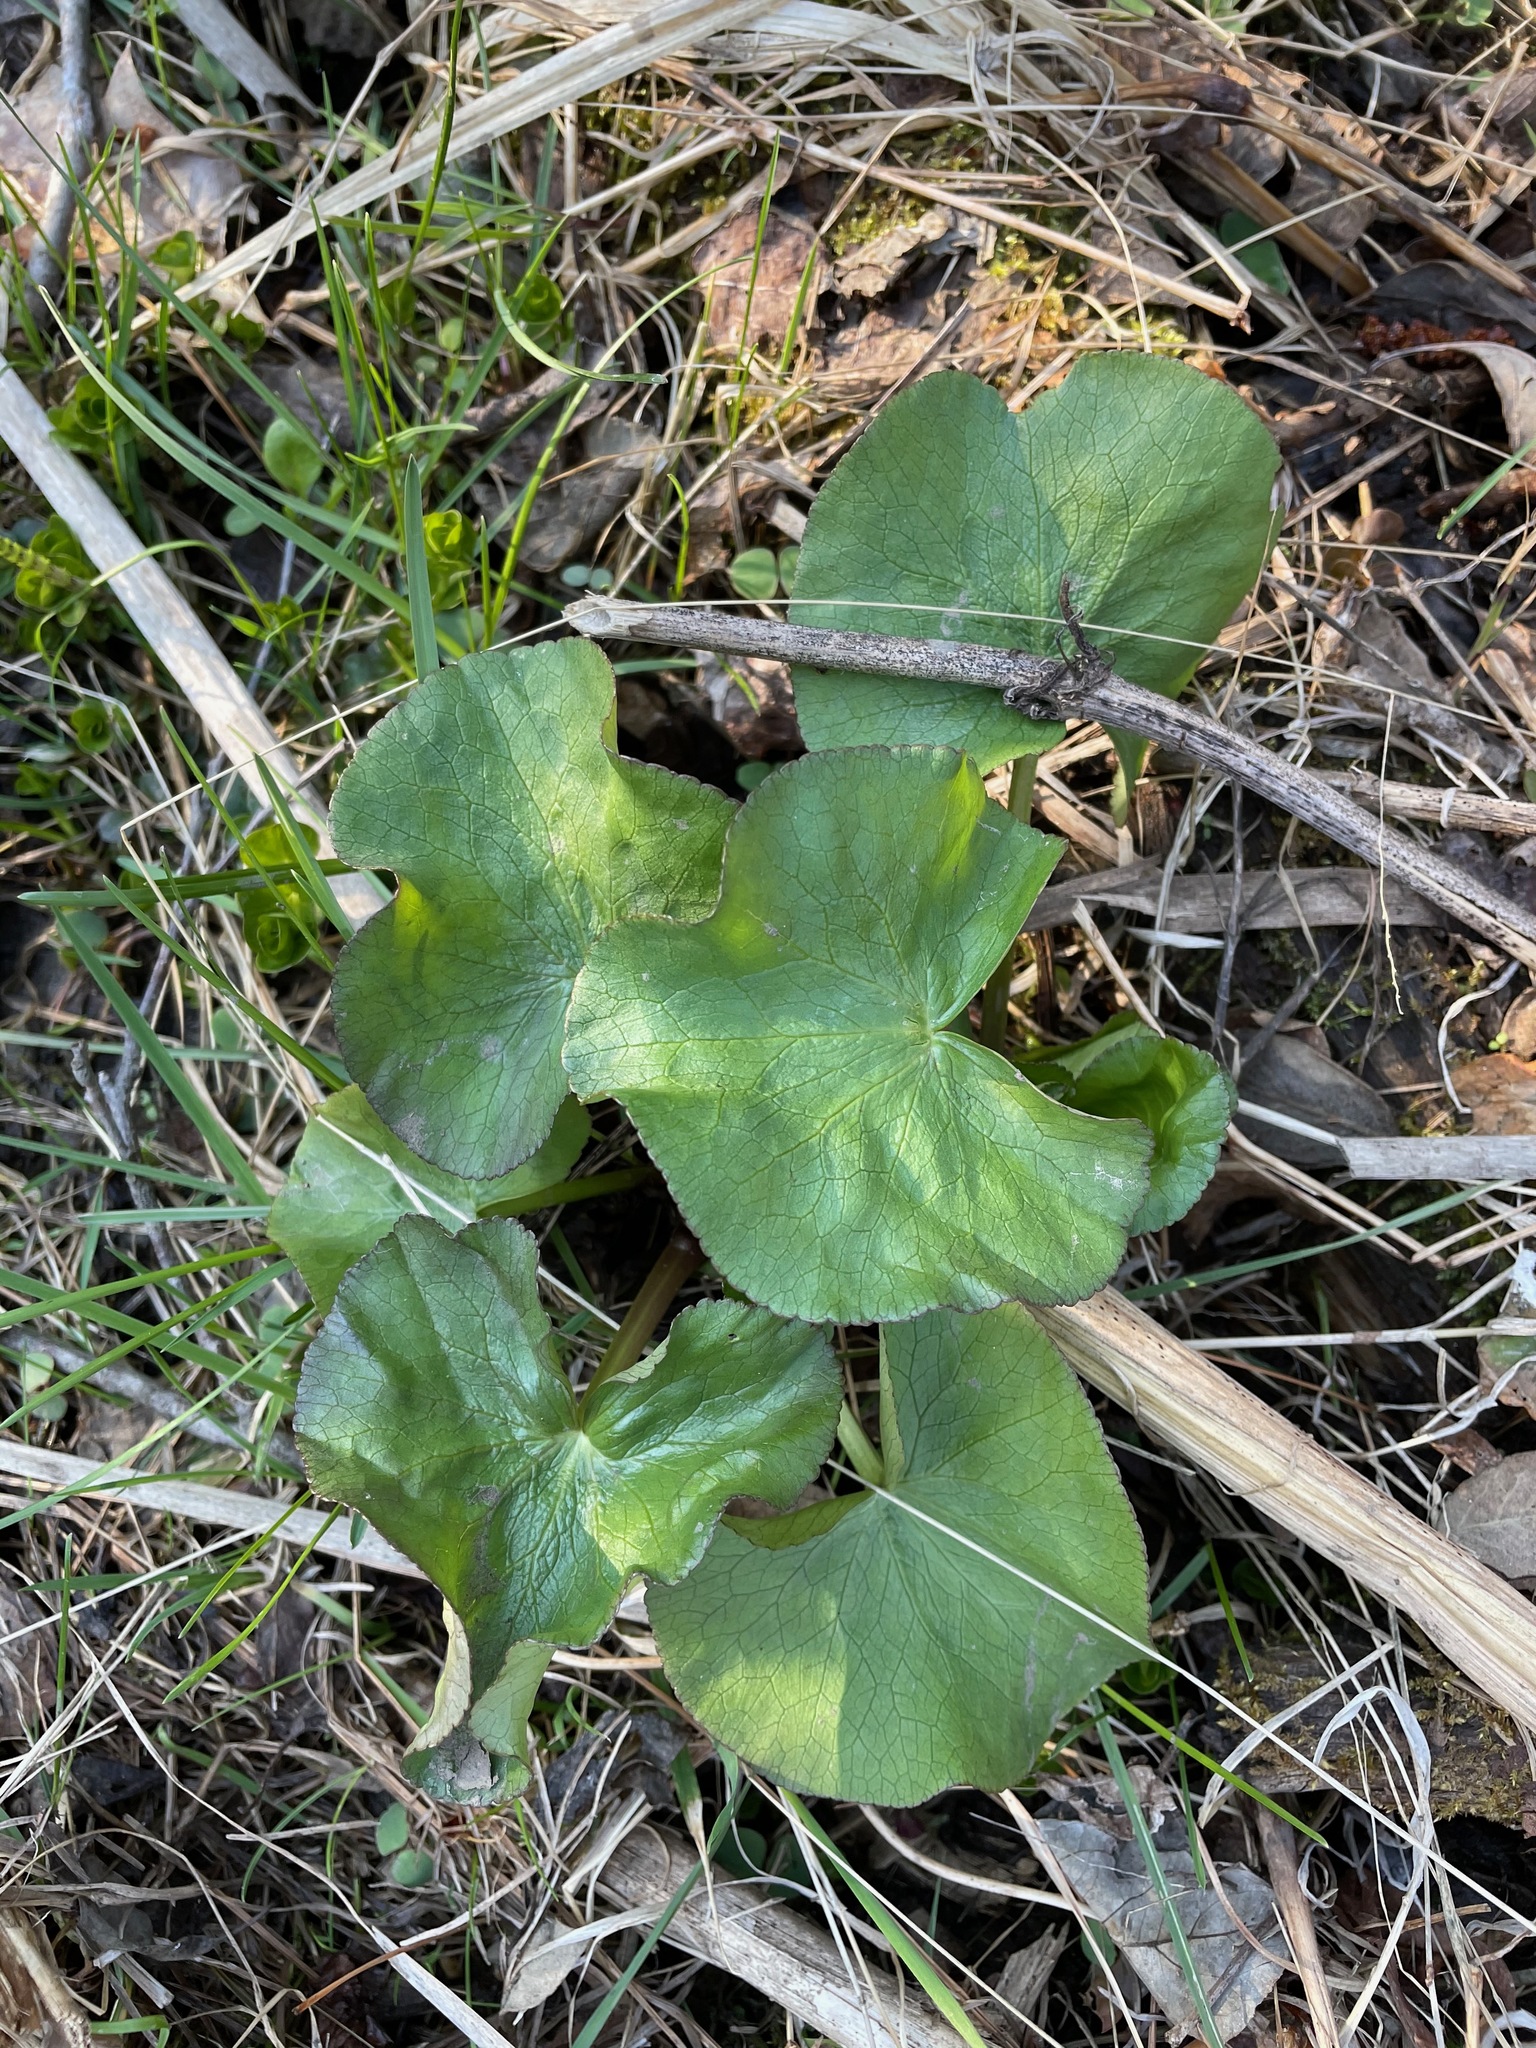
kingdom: Plantae
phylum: Tracheophyta
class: Magnoliopsida
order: Ranunculales
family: Ranunculaceae
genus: Caltha
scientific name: Caltha palustris
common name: Marsh marigold
